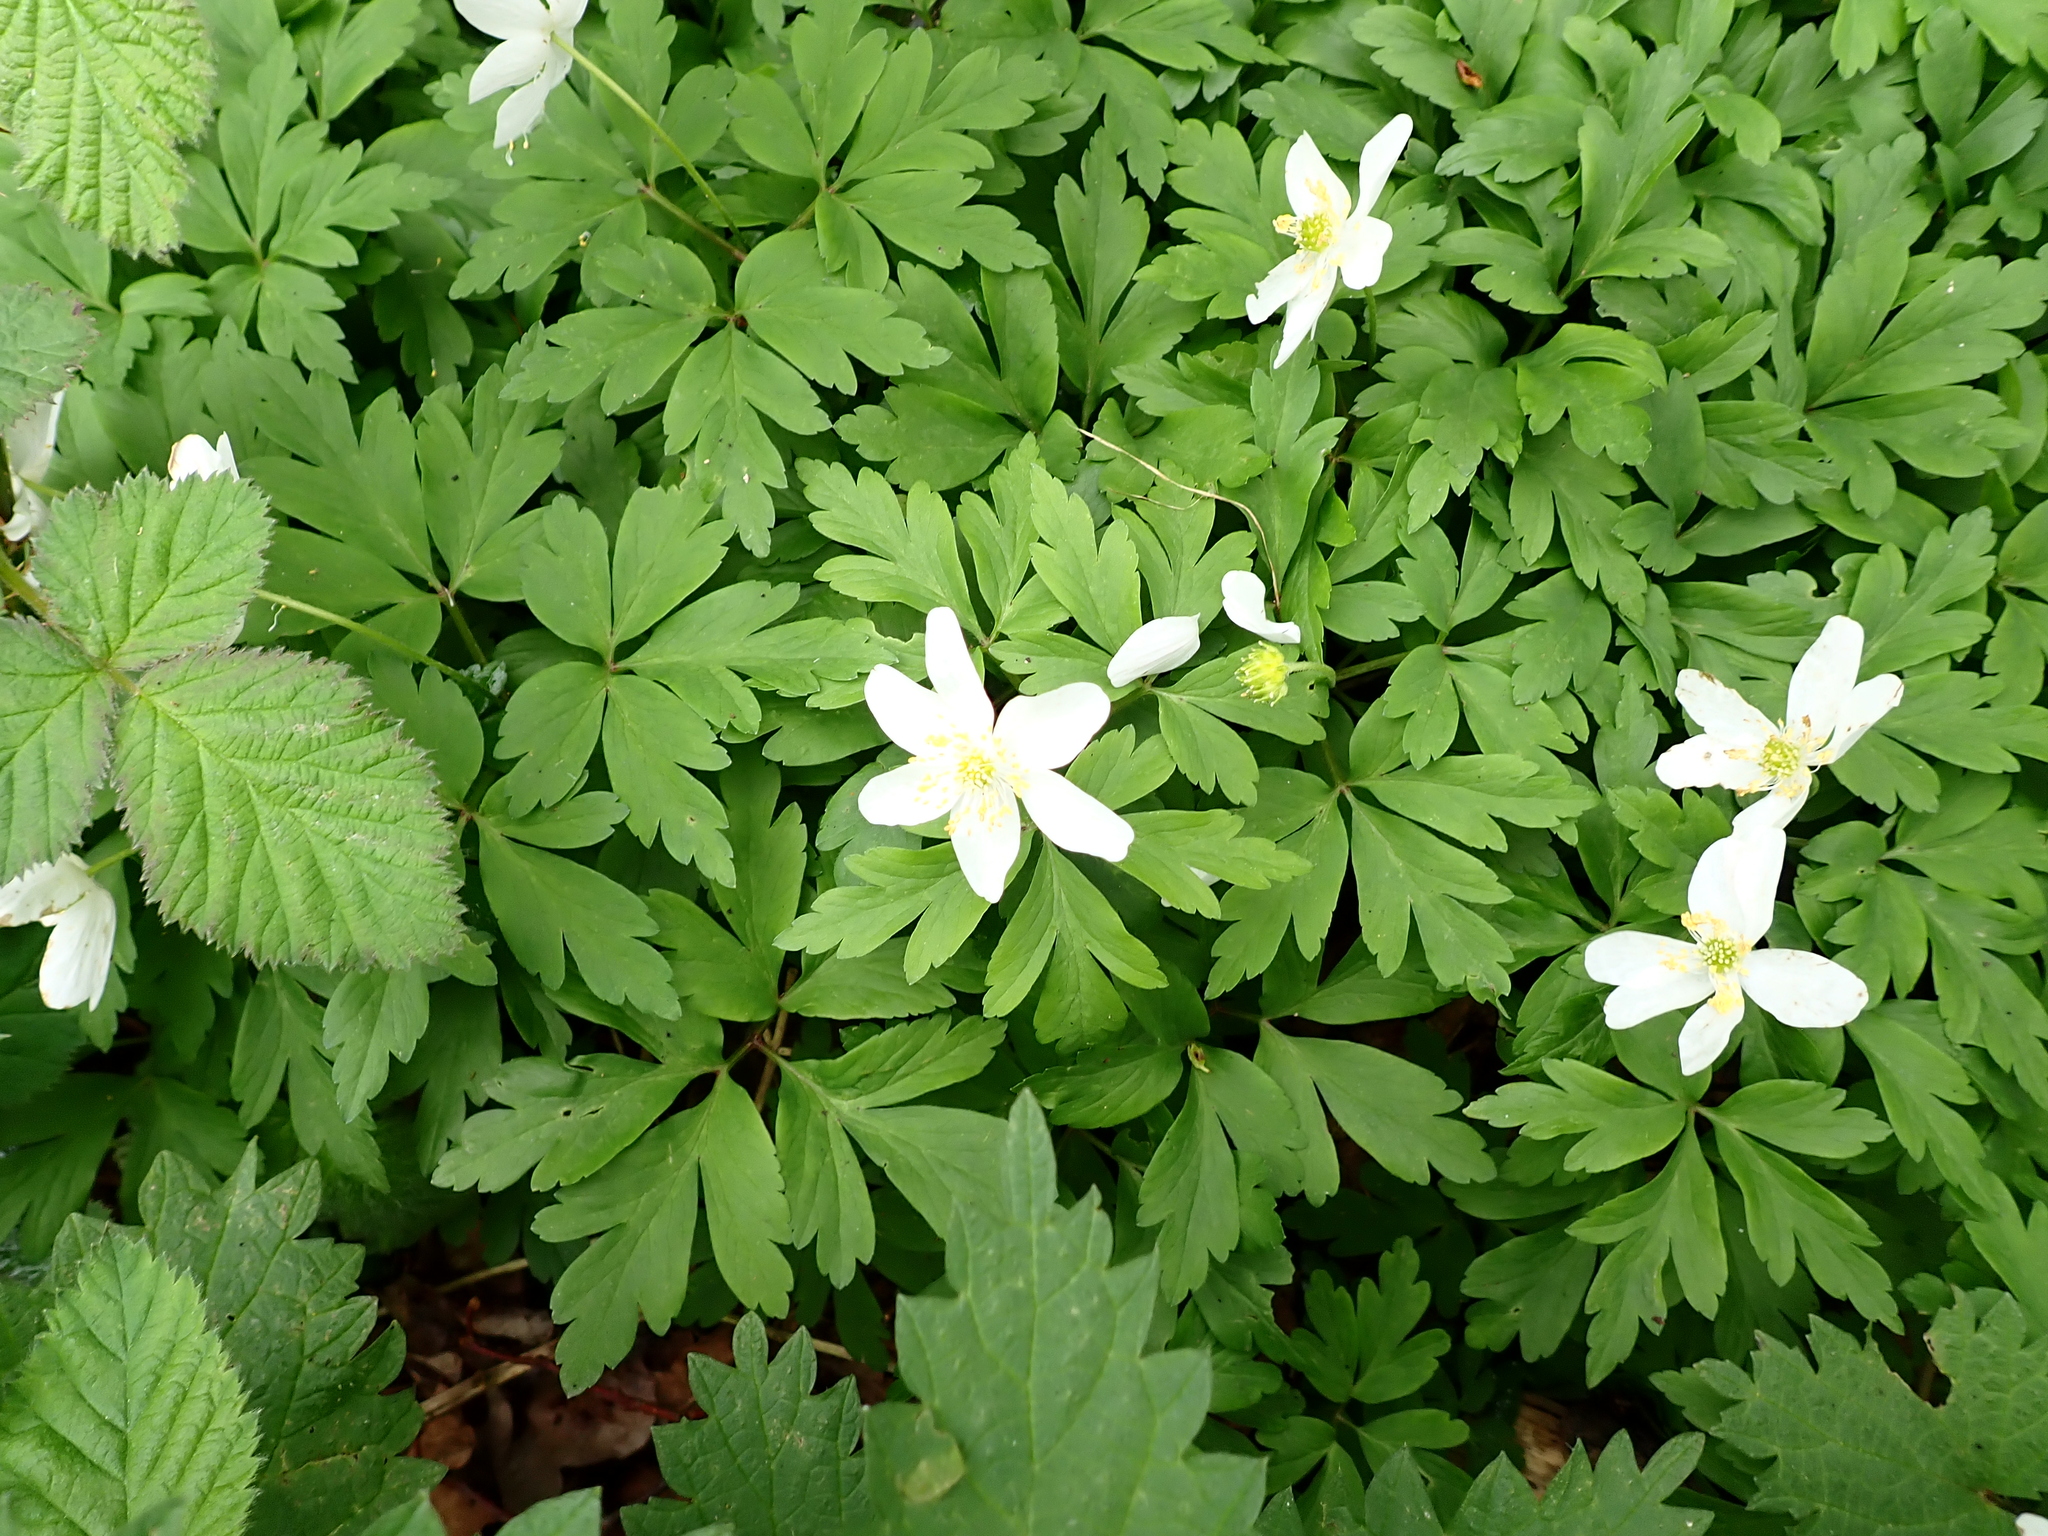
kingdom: Plantae
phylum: Tracheophyta
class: Magnoliopsida
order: Ranunculales
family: Ranunculaceae
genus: Anemone
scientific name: Anemone nemorosa
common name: Wood anemone
